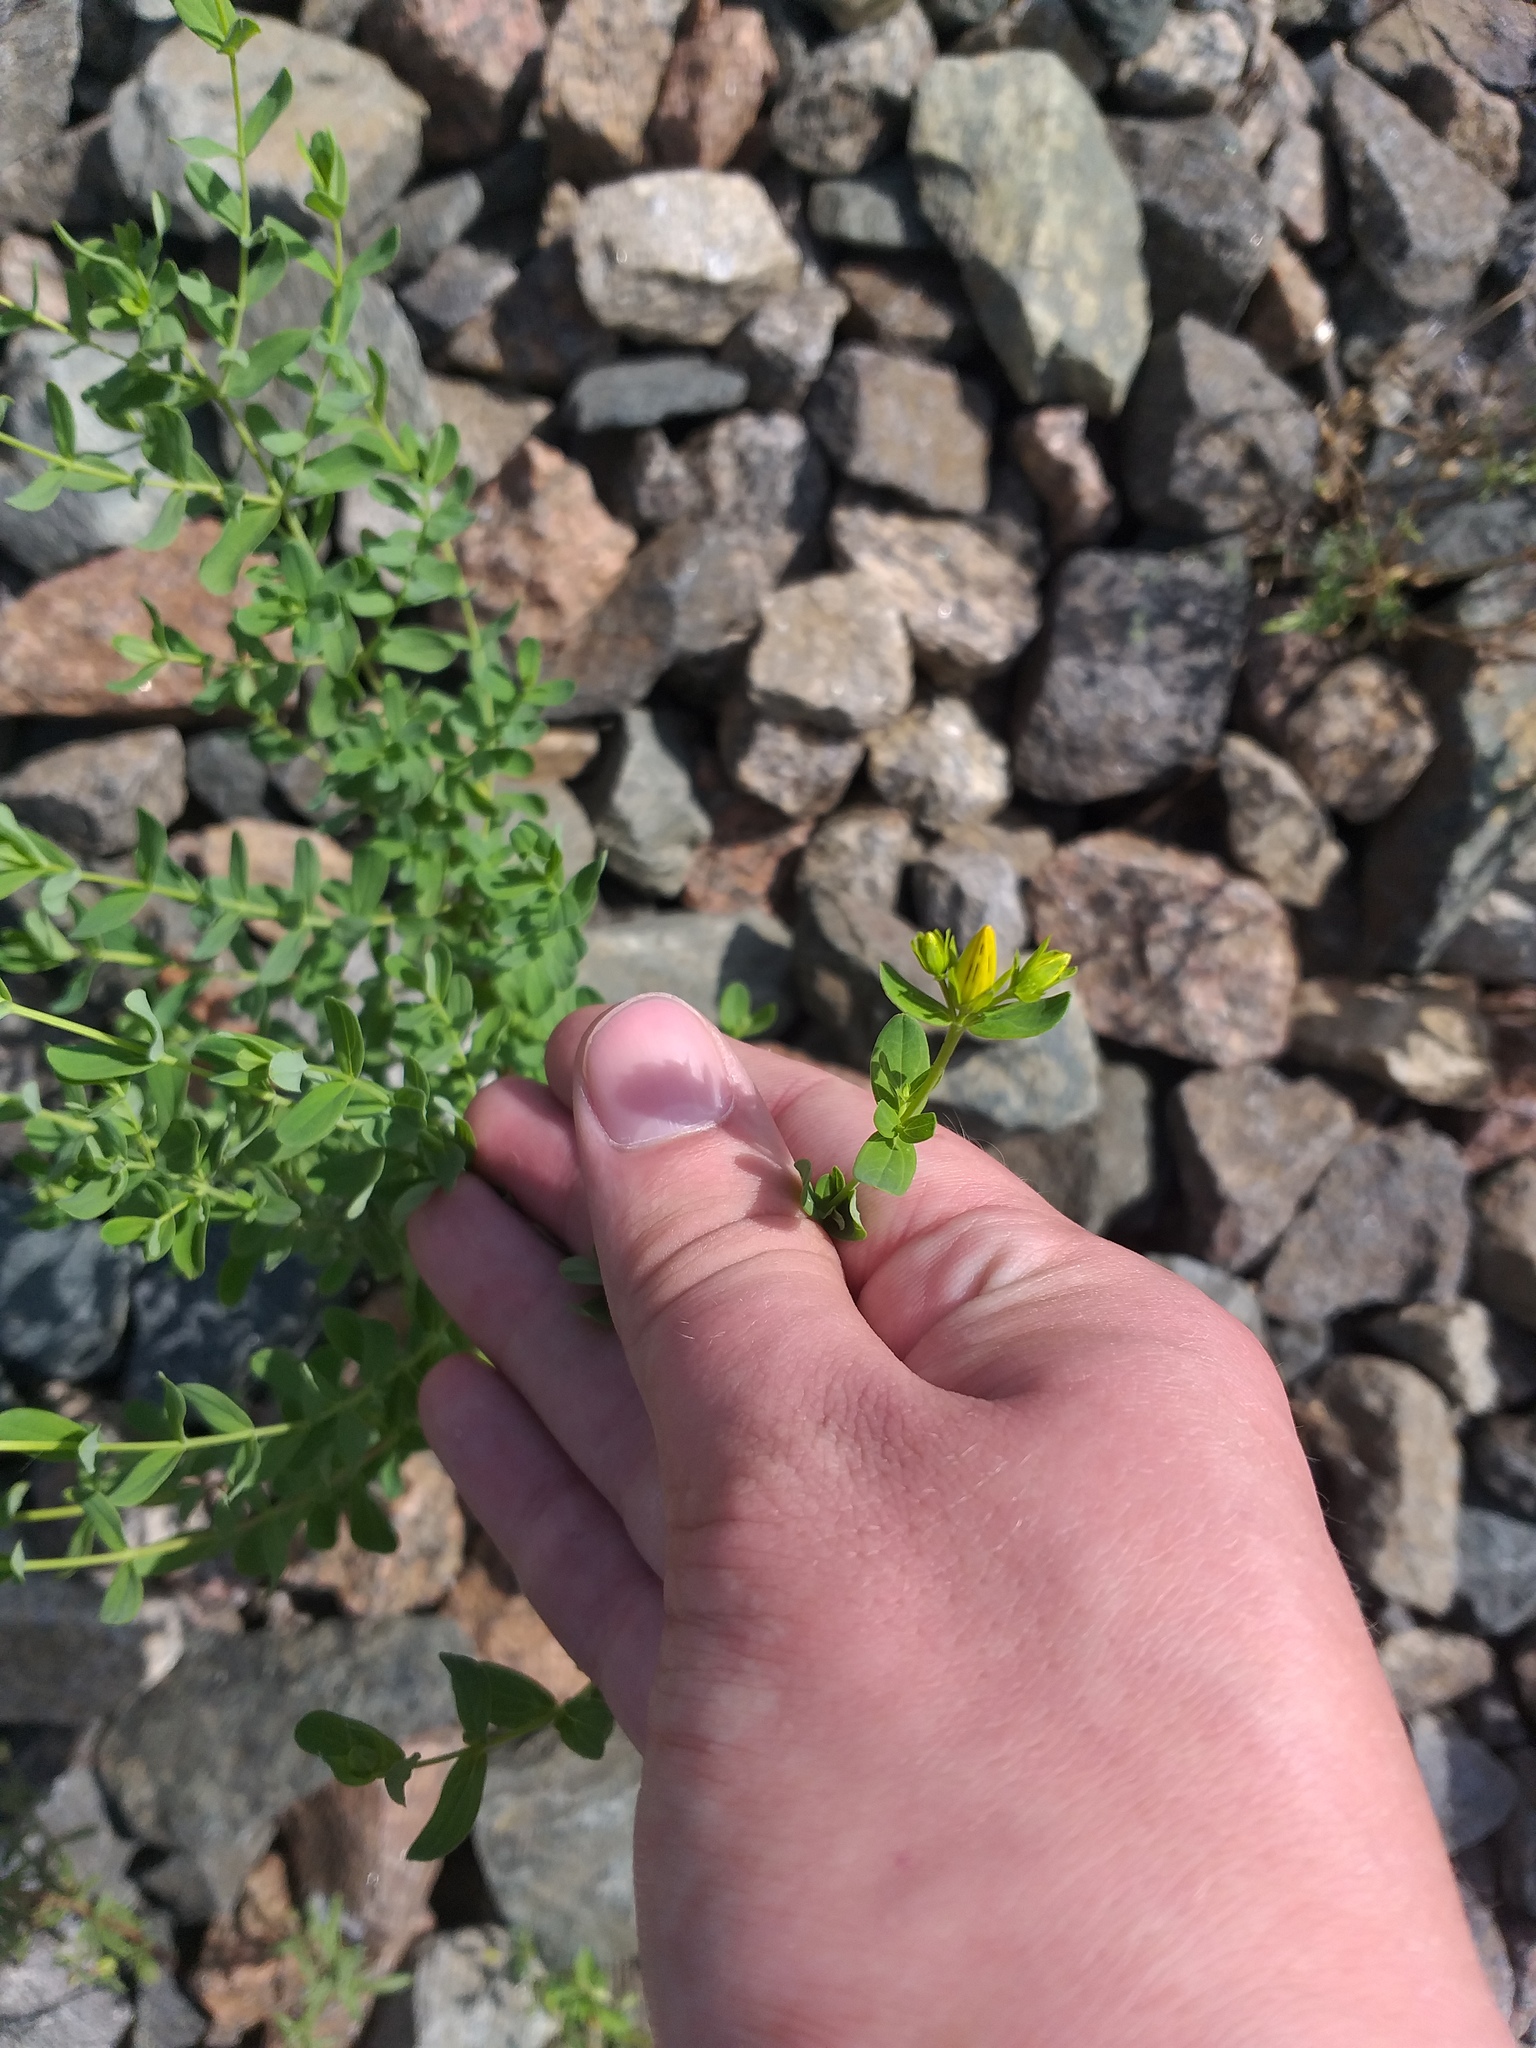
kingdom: Plantae
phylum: Tracheophyta
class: Magnoliopsida
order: Malpighiales
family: Hypericaceae
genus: Hypericum
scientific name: Hypericum perforatum
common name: Common st. johnswort
